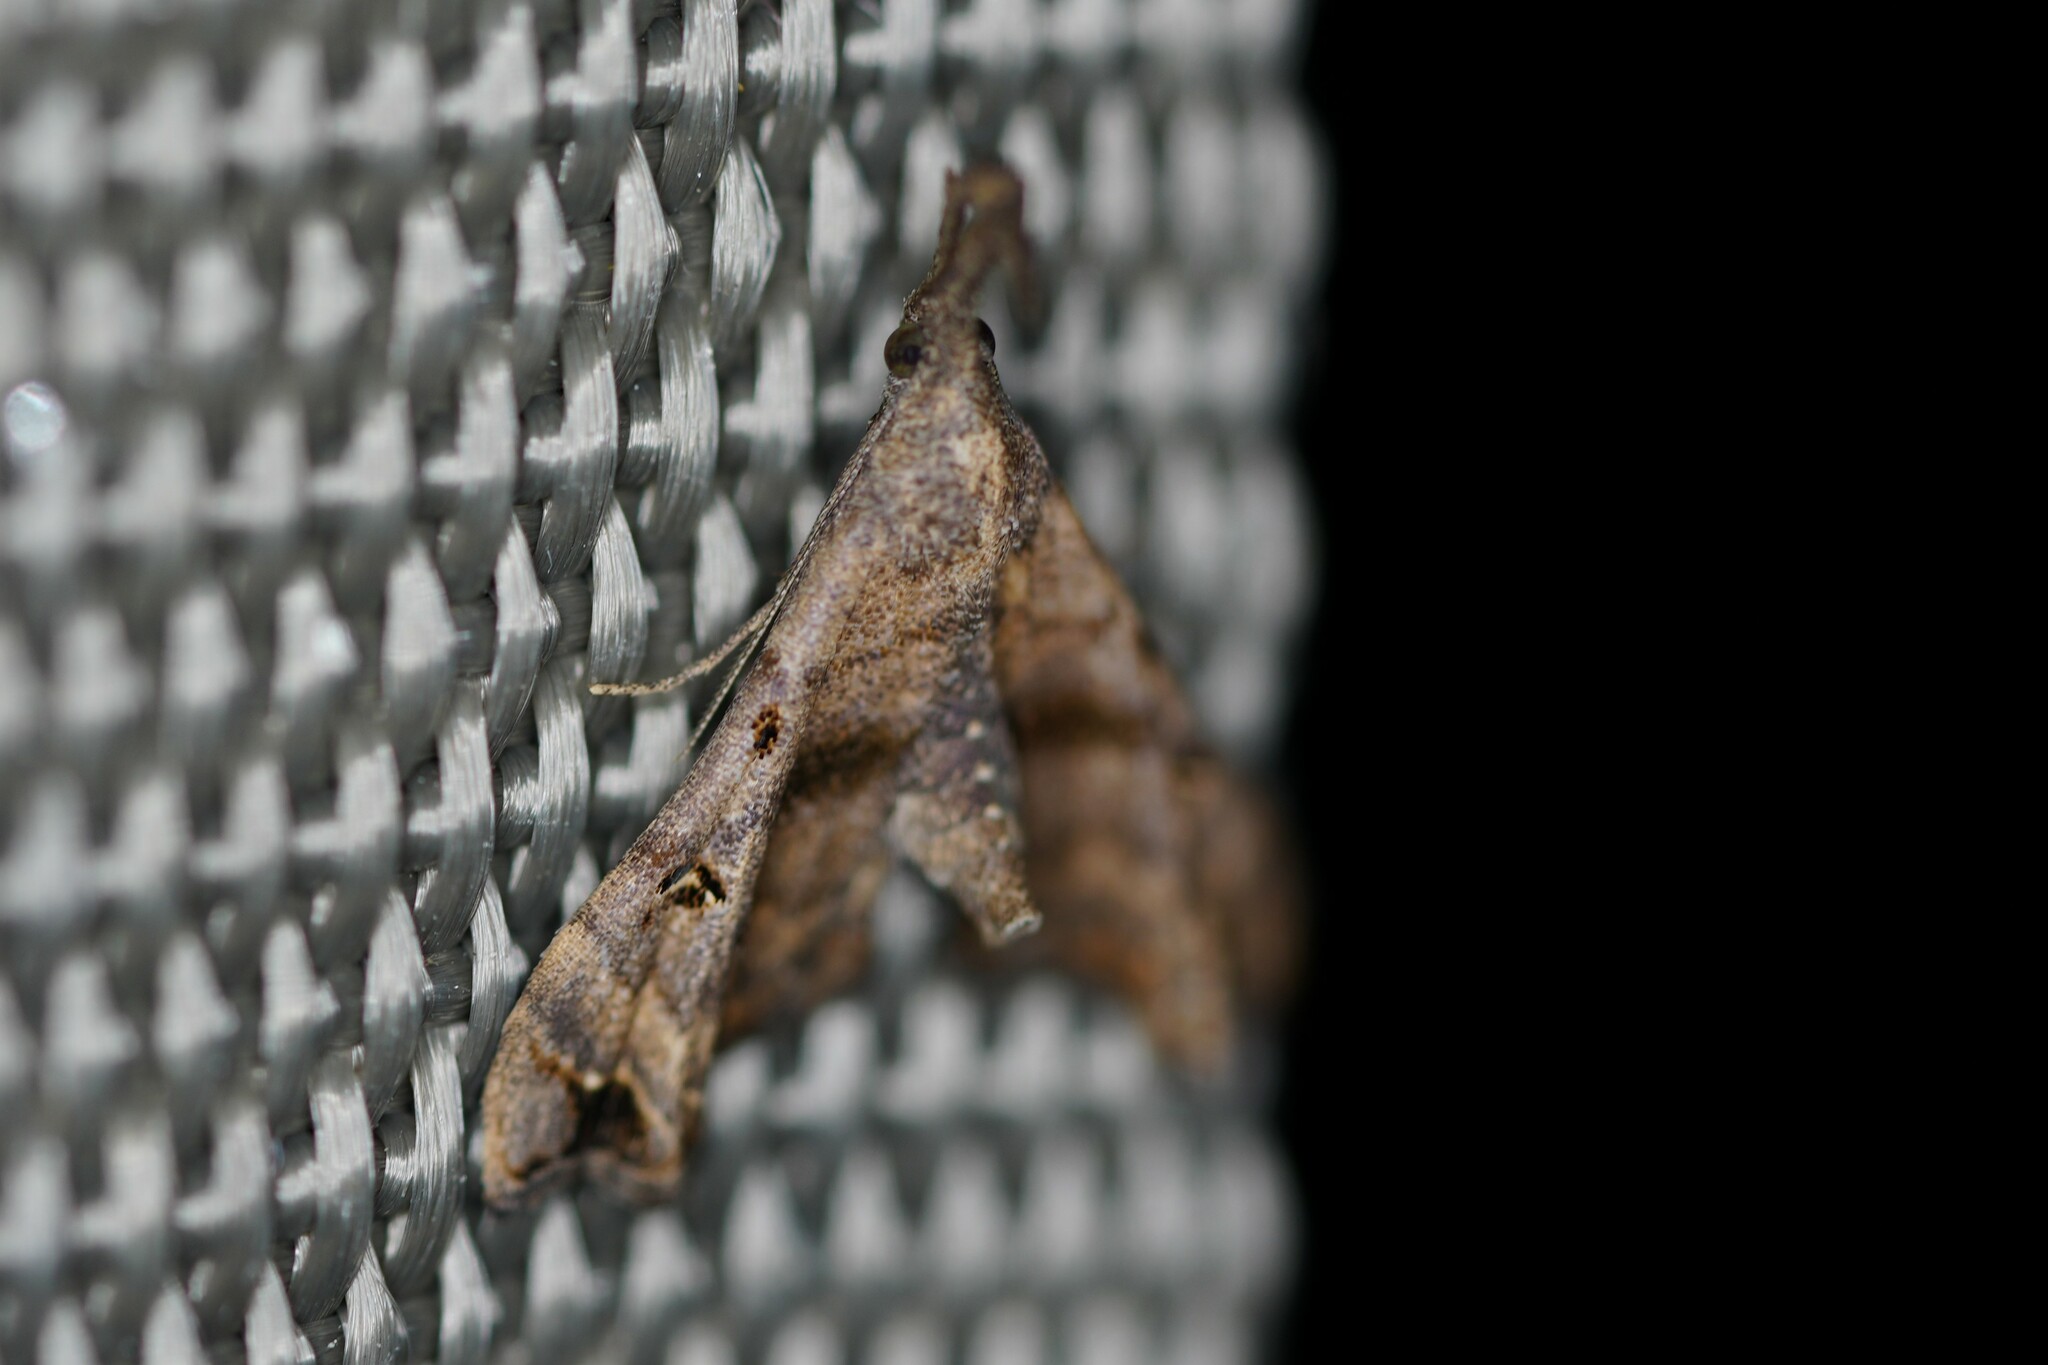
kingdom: Animalia
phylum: Arthropoda
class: Insecta
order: Lepidoptera
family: Erebidae
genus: Palthis
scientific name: Palthis asopialis
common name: Faint-spotted palthis moth
